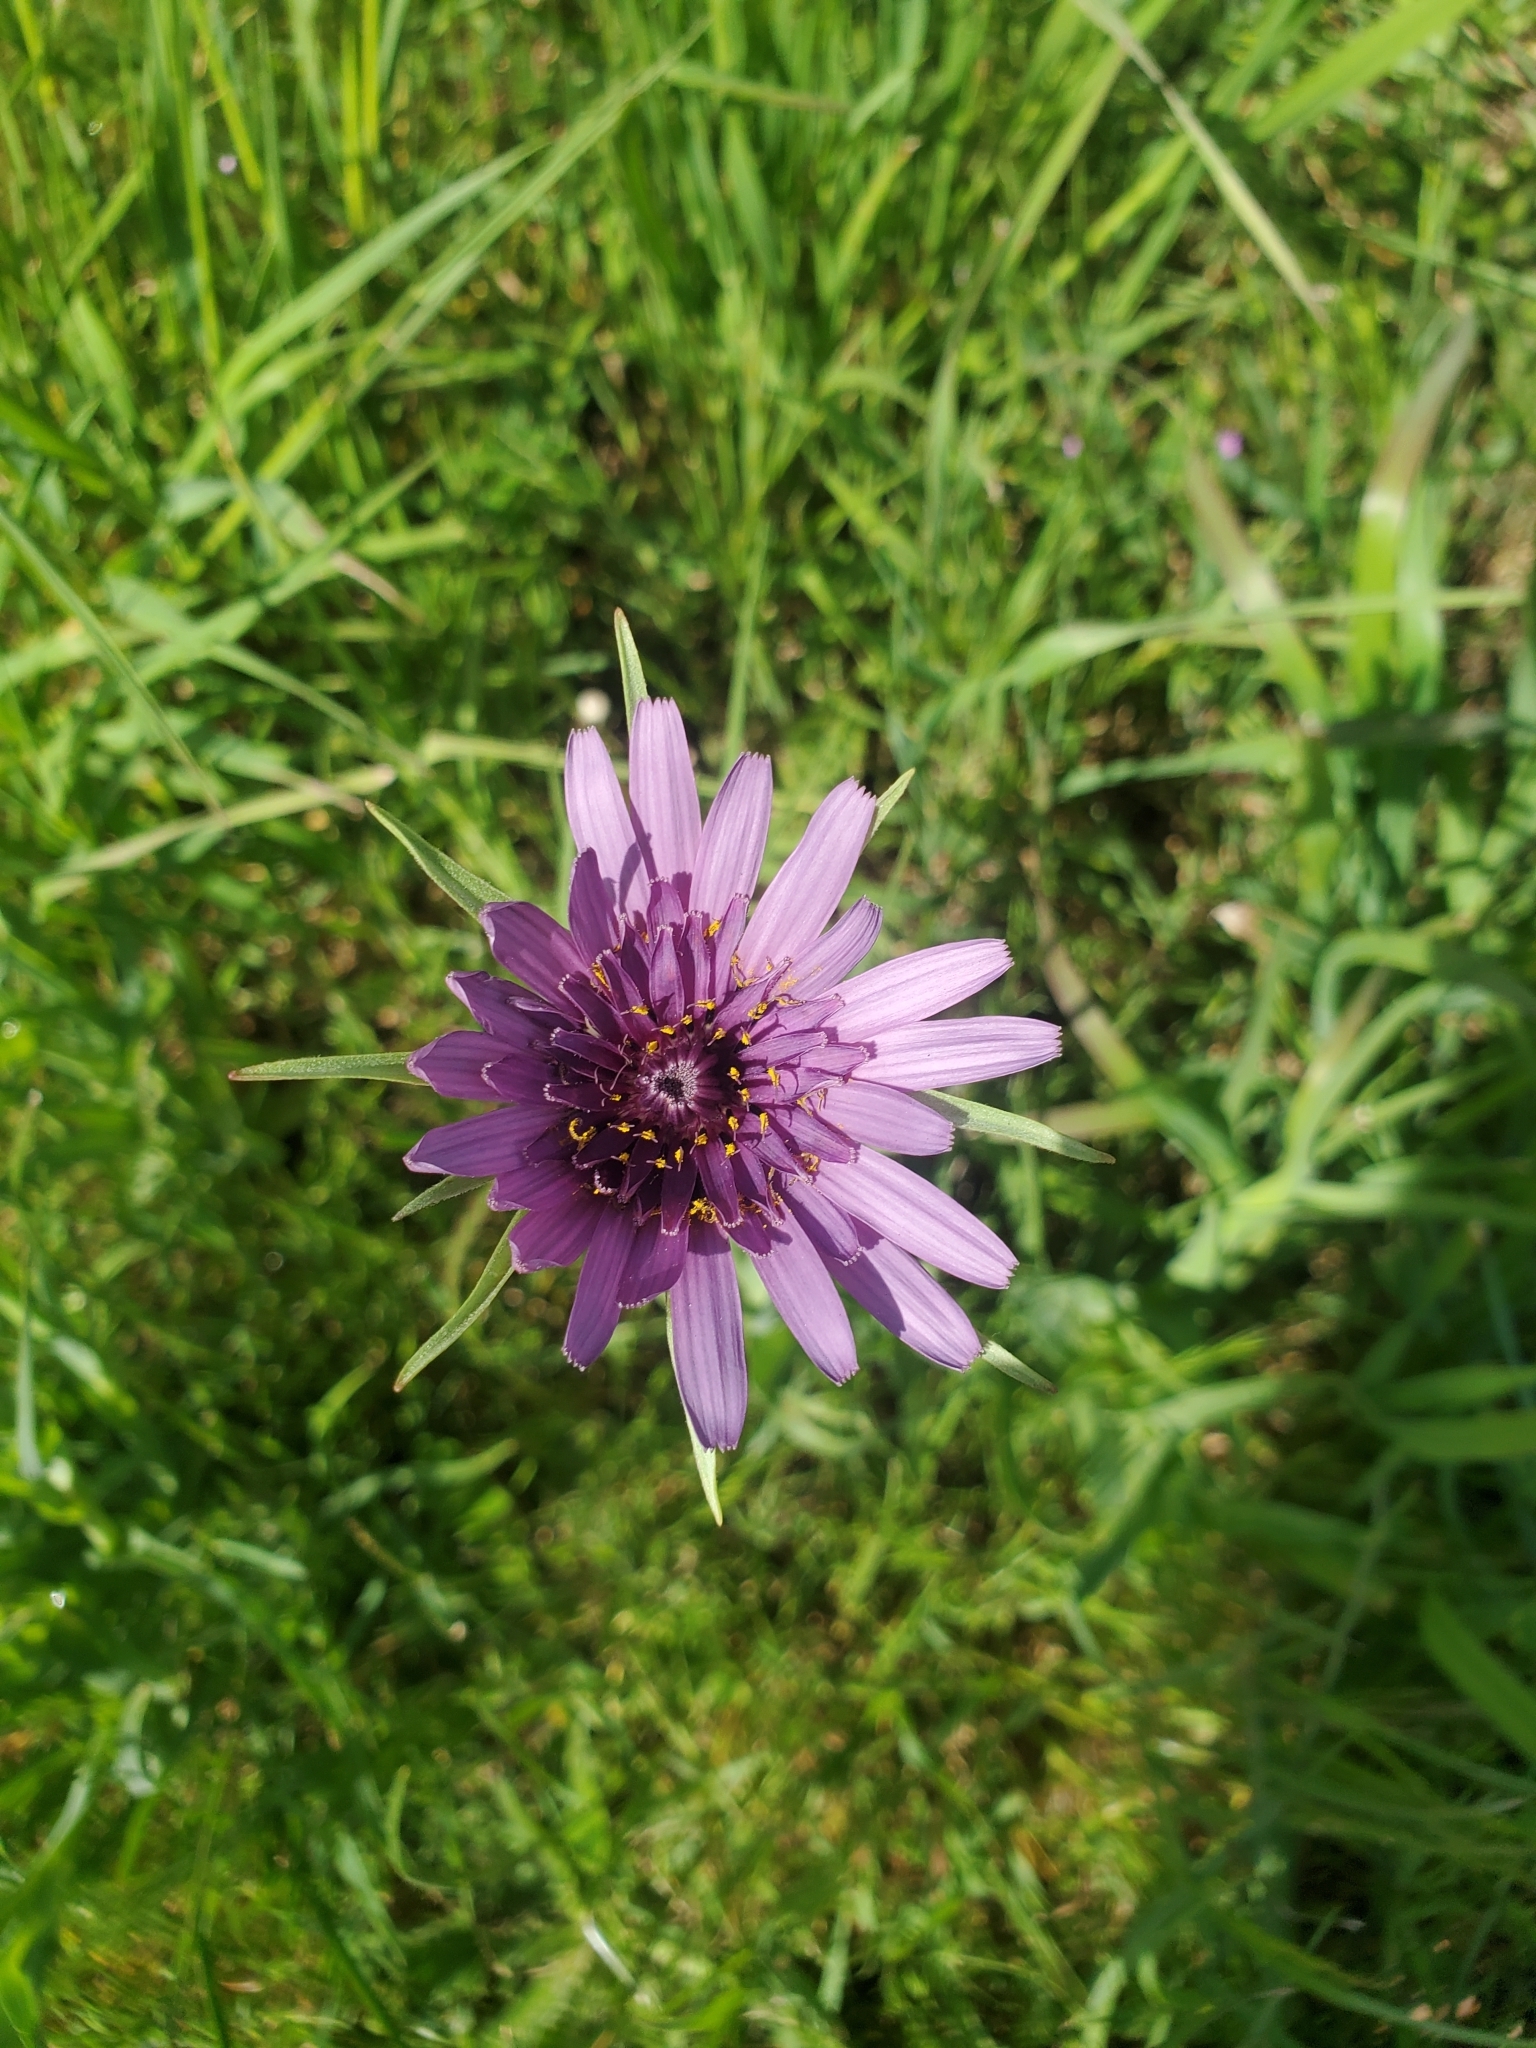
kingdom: Plantae
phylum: Tracheophyta
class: Magnoliopsida
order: Asterales
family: Asteraceae
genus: Tragopogon
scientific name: Tragopogon porrifolius
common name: Salsify
